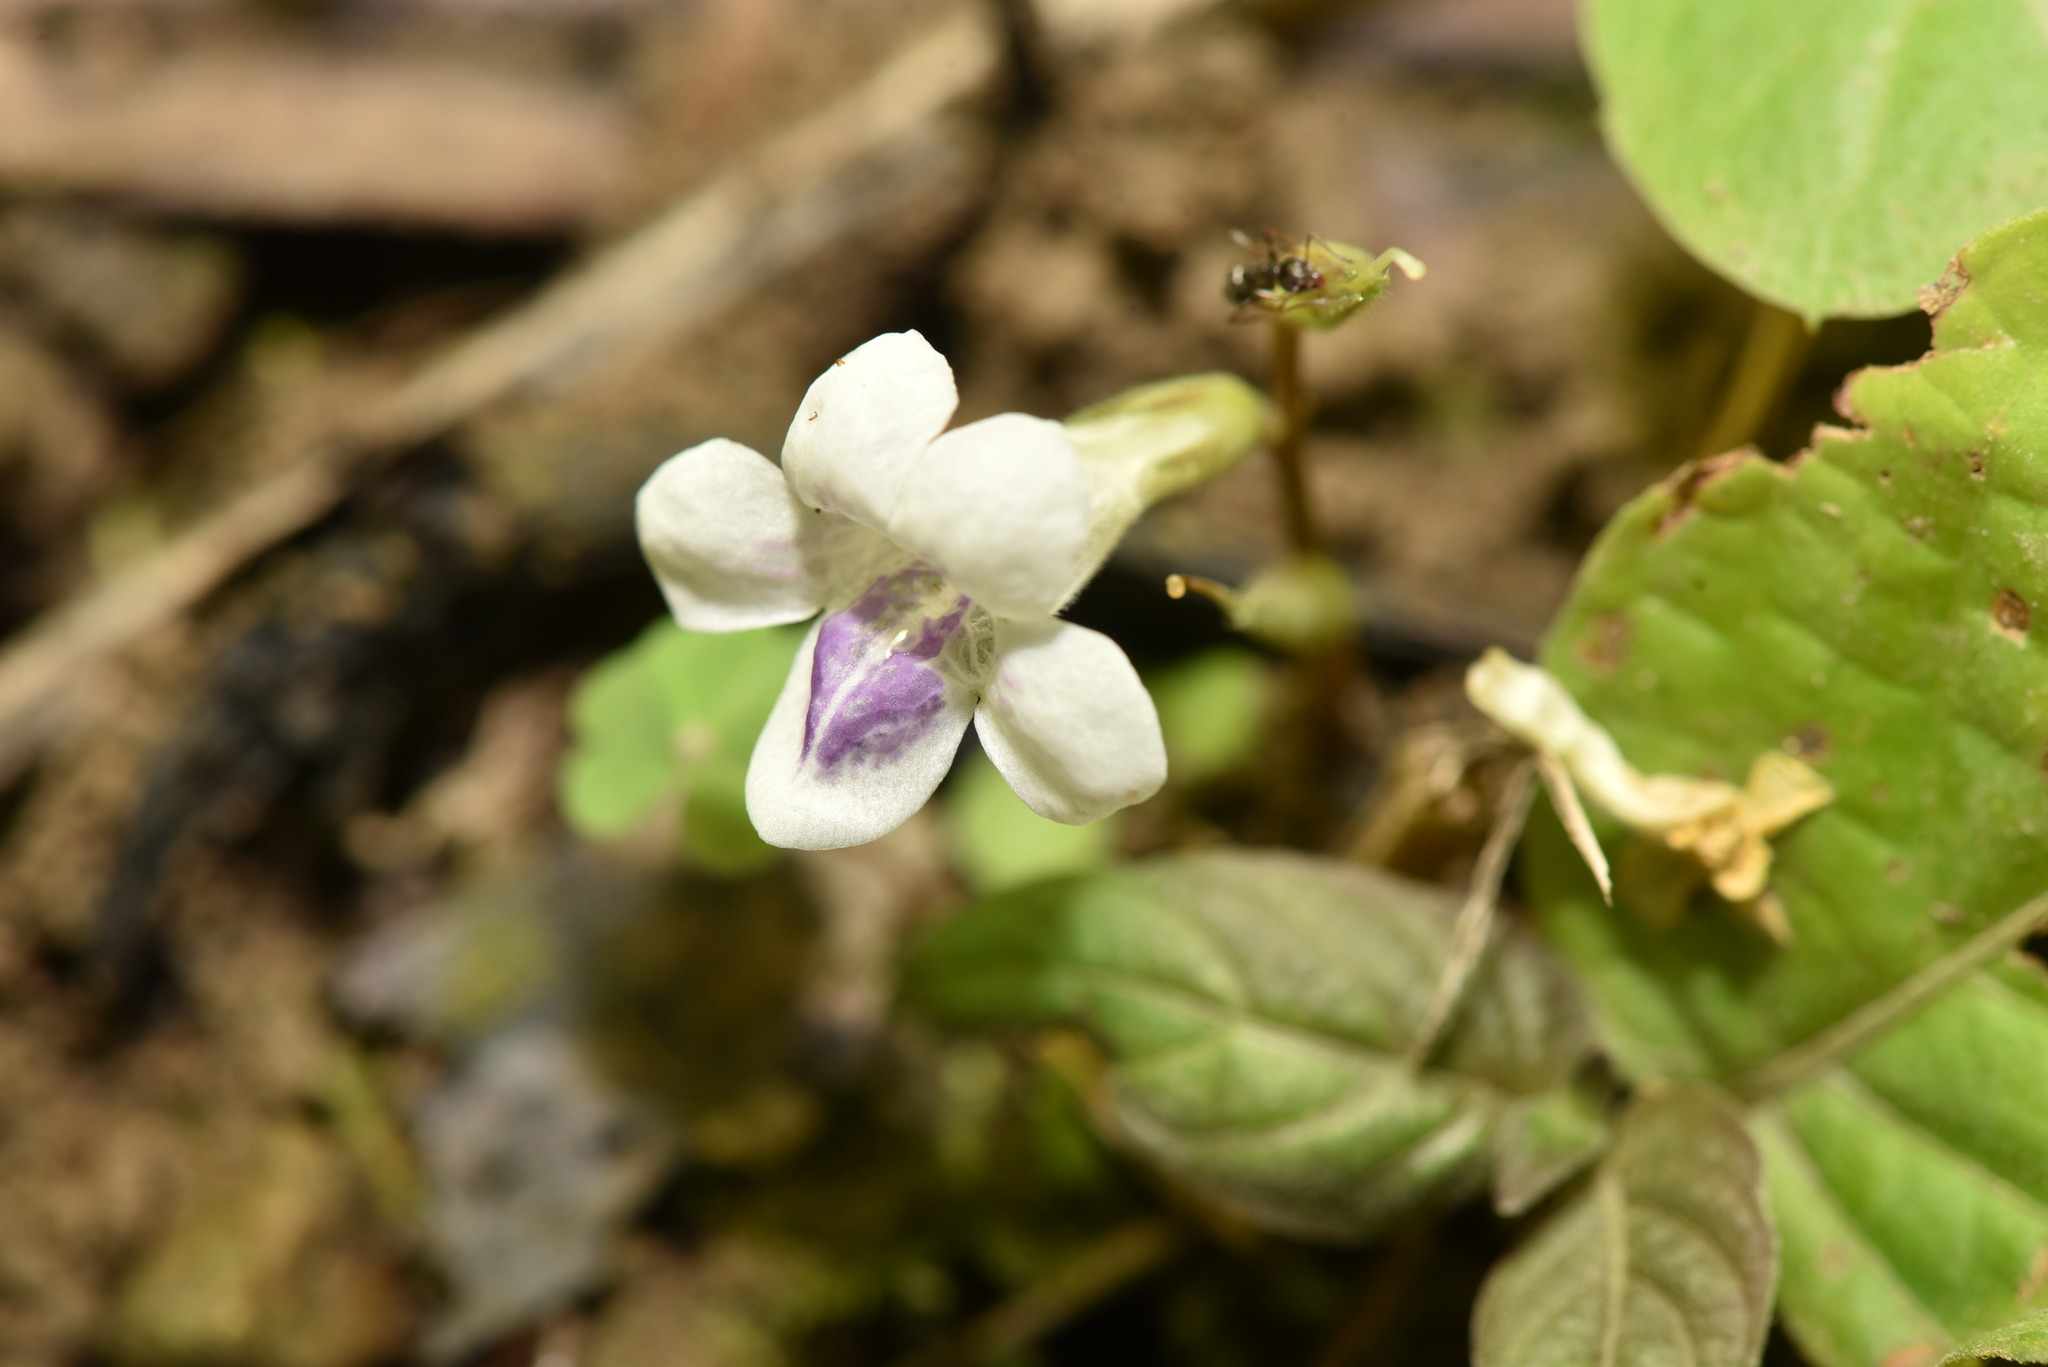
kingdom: Plantae
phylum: Tracheophyta
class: Magnoliopsida
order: Lamiales
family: Acanthaceae
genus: Asystasia
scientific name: Asystasia intrusa
